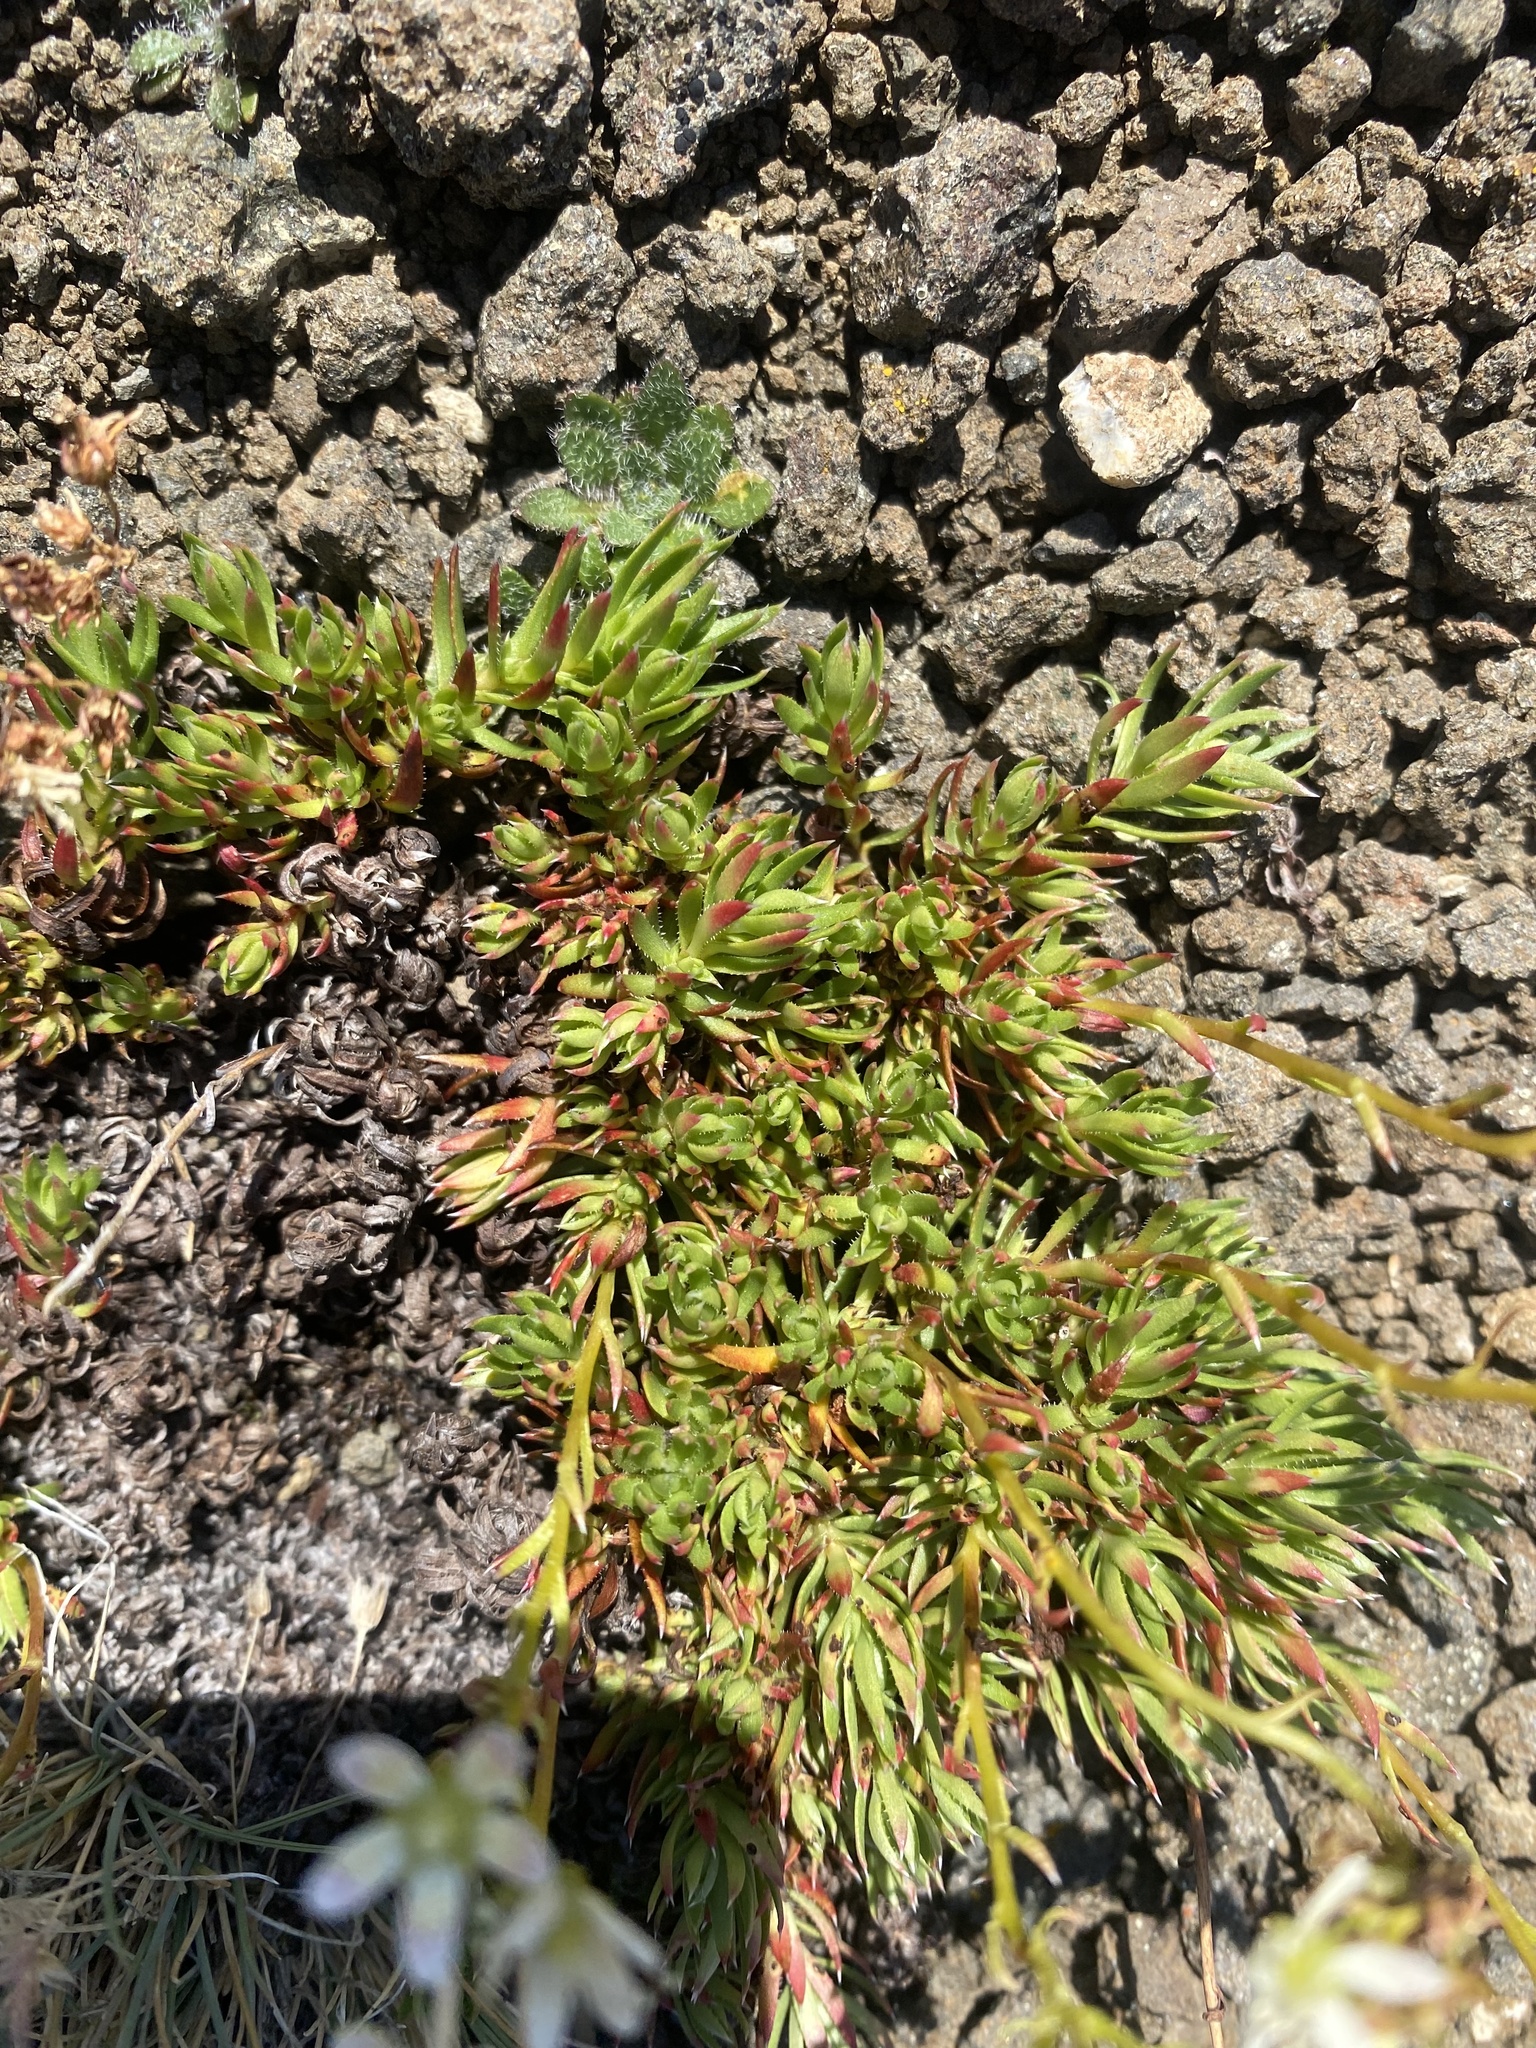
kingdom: Plantae
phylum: Tracheophyta
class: Magnoliopsida
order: Saxifragales
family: Saxifragaceae
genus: Saxifraga
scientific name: Saxifraga
